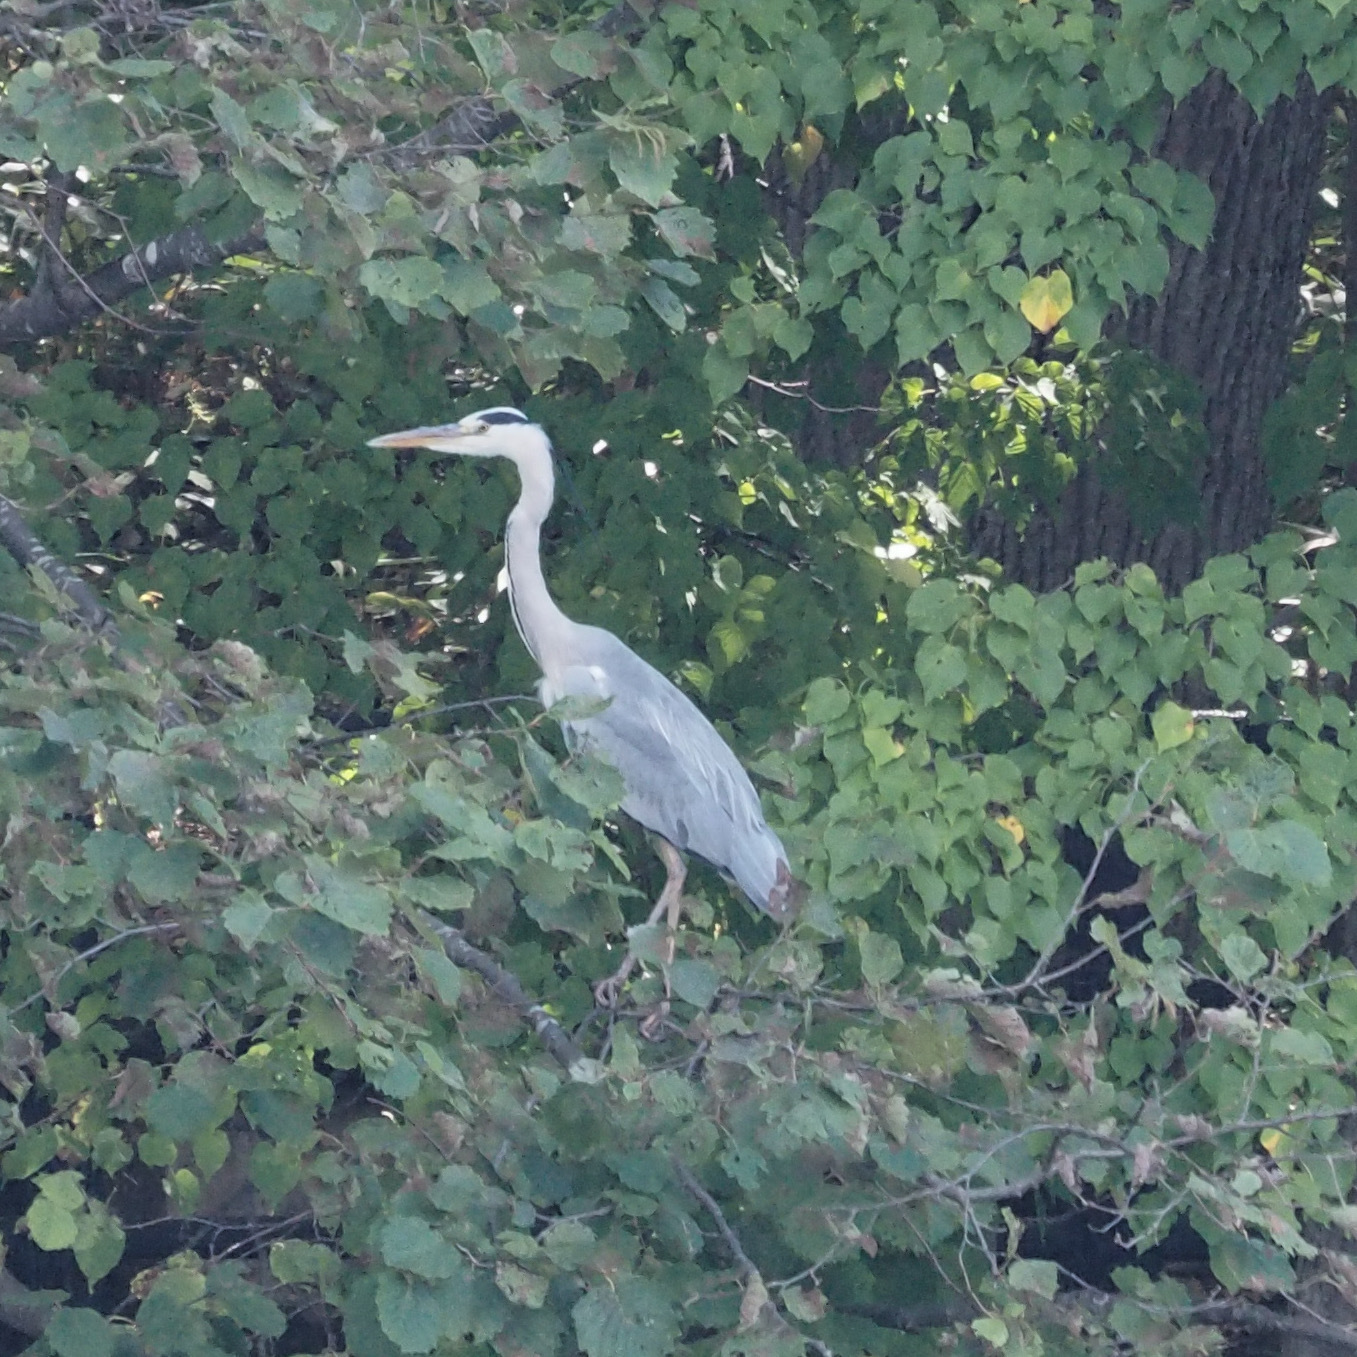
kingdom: Animalia
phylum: Chordata
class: Aves
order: Pelecaniformes
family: Ardeidae
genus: Ardea
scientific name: Ardea cinerea
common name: Grey heron
